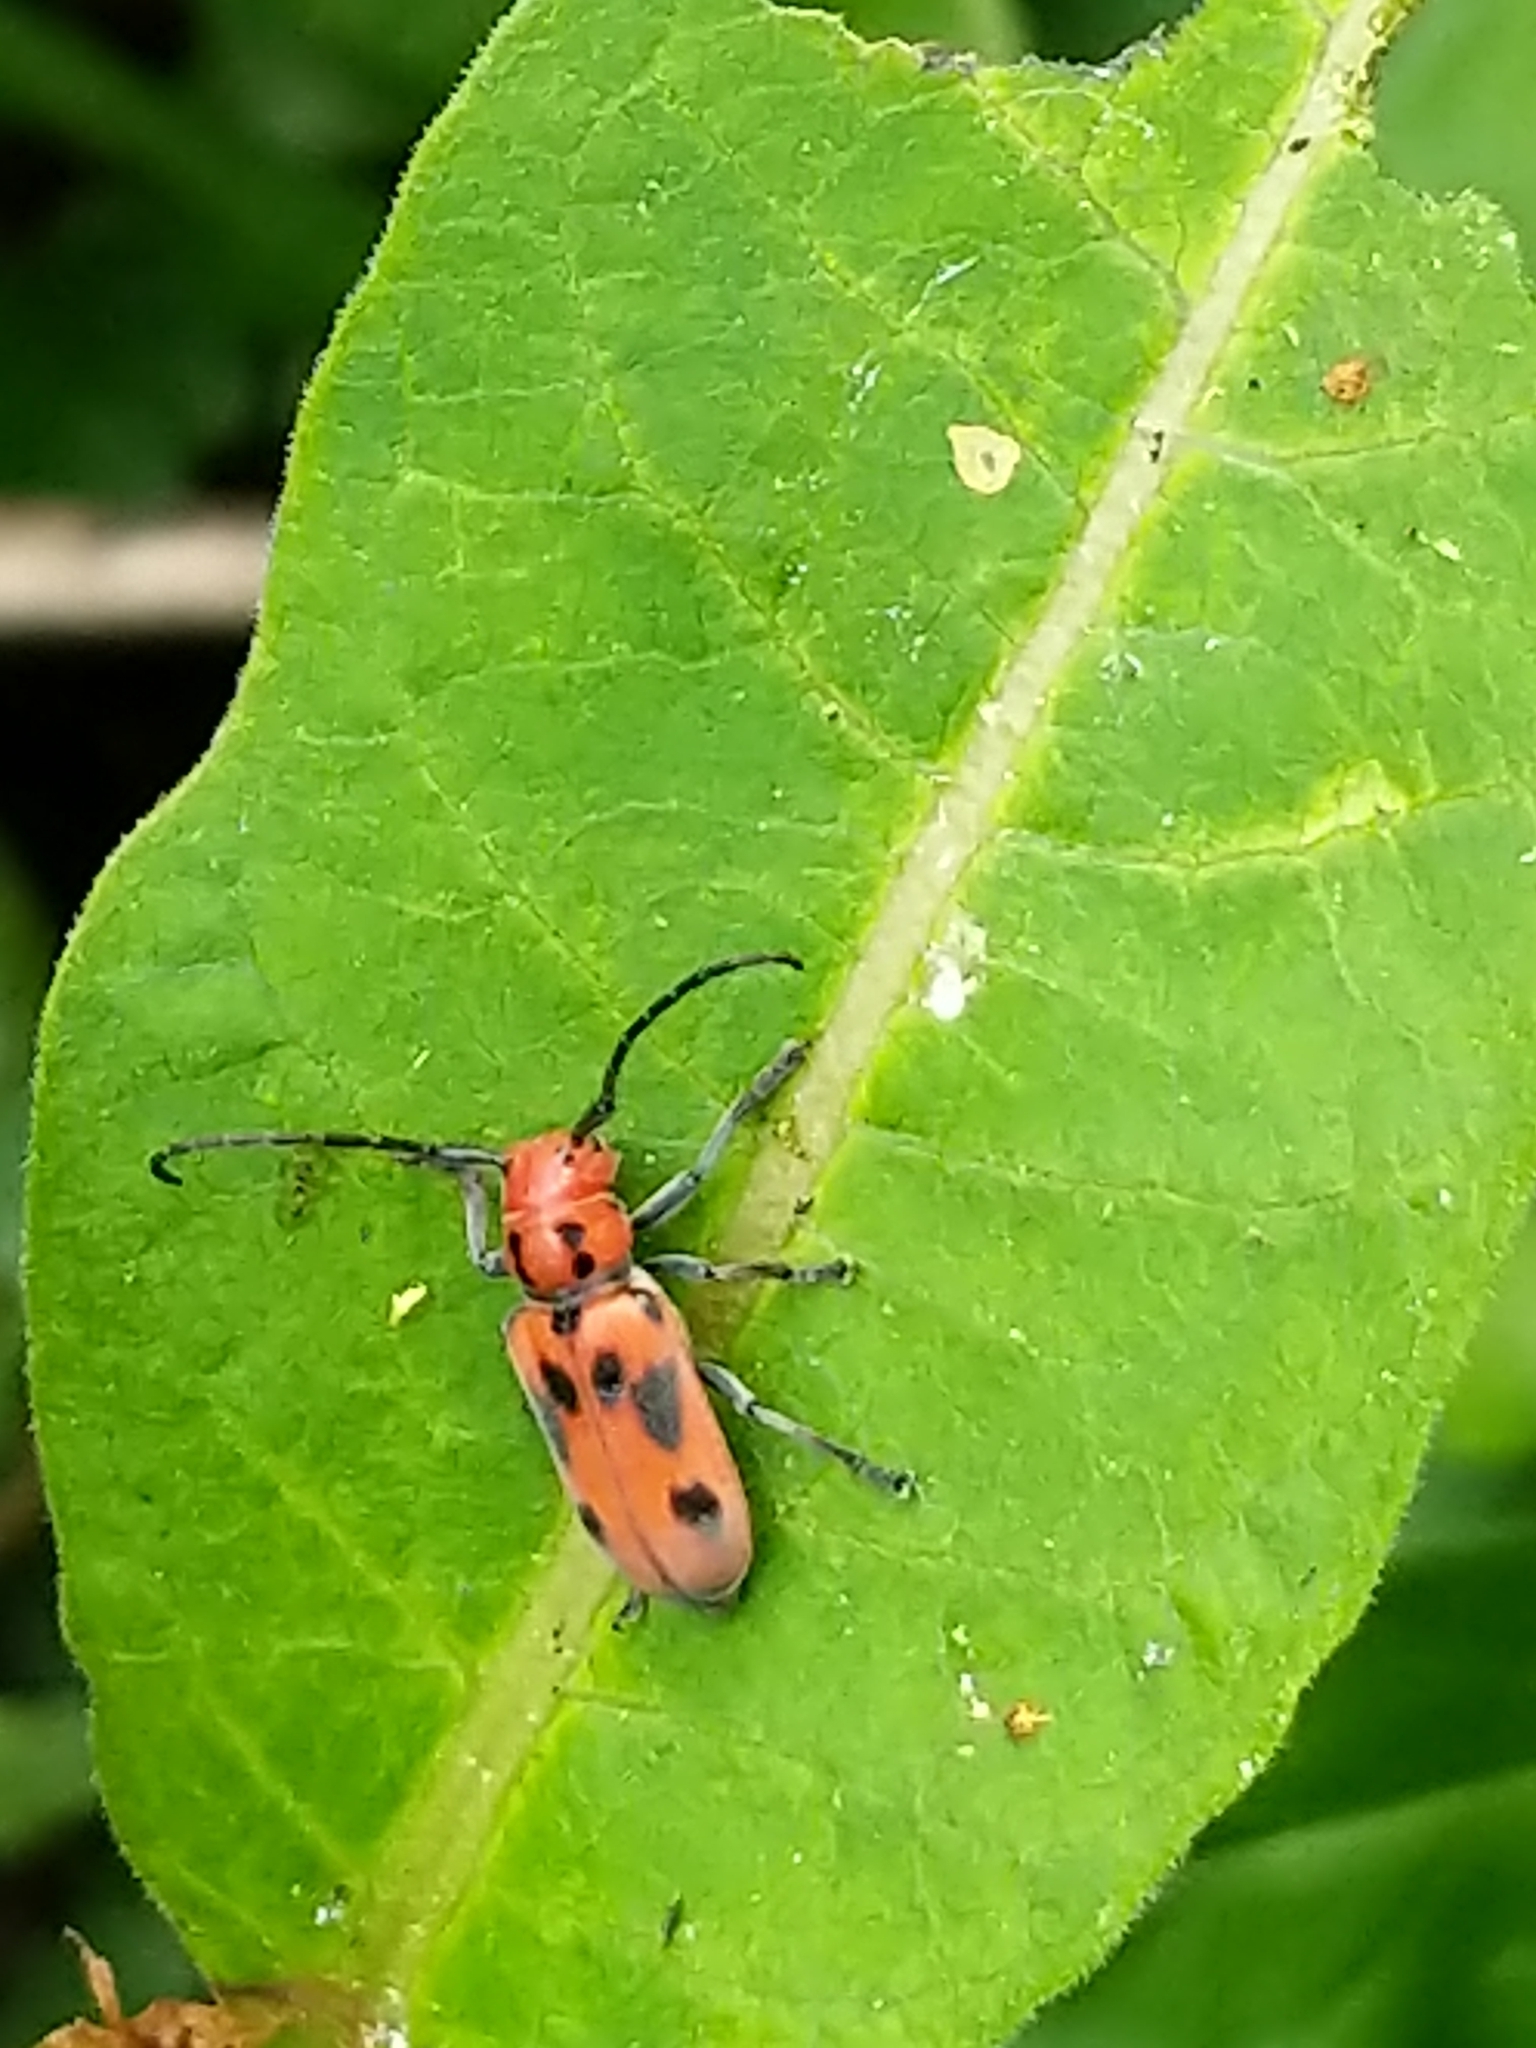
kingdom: Animalia
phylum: Arthropoda
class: Insecta
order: Coleoptera
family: Cerambycidae
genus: Tetraopes
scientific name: Tetraopes tetrophthalmus
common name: Red milkweed beetle
